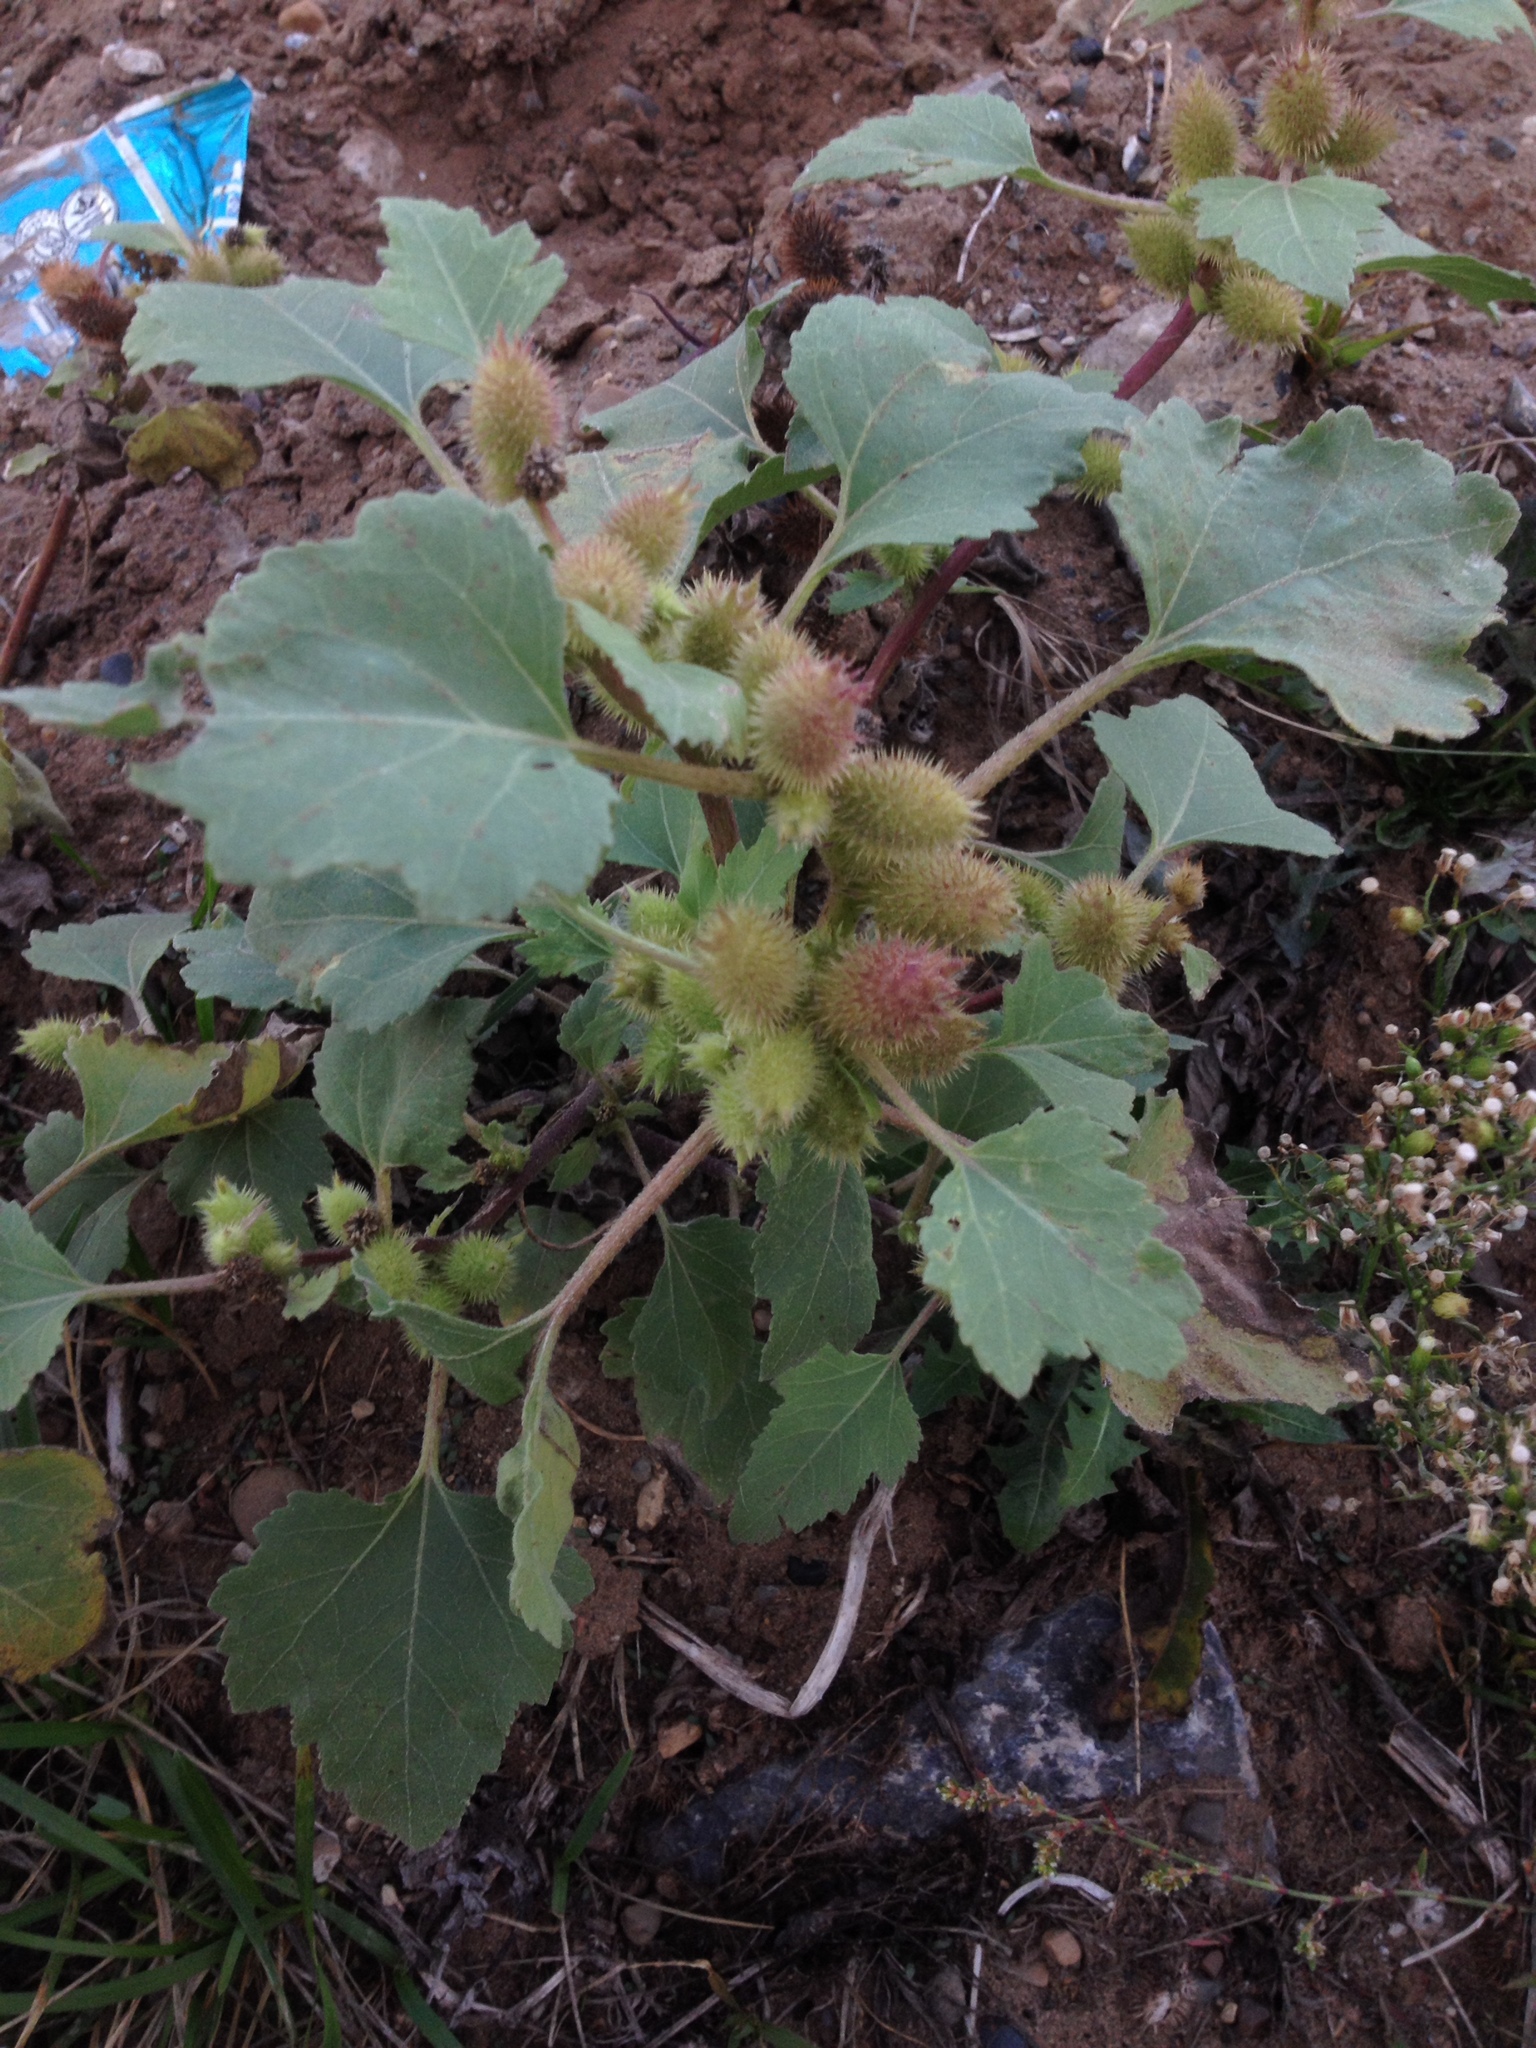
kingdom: Plantae
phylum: Tracheophyta
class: Magnoliopsida
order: Asterales
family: Asteraceae
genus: Xanthium
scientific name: Xanthium orientale
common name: Californian burr
